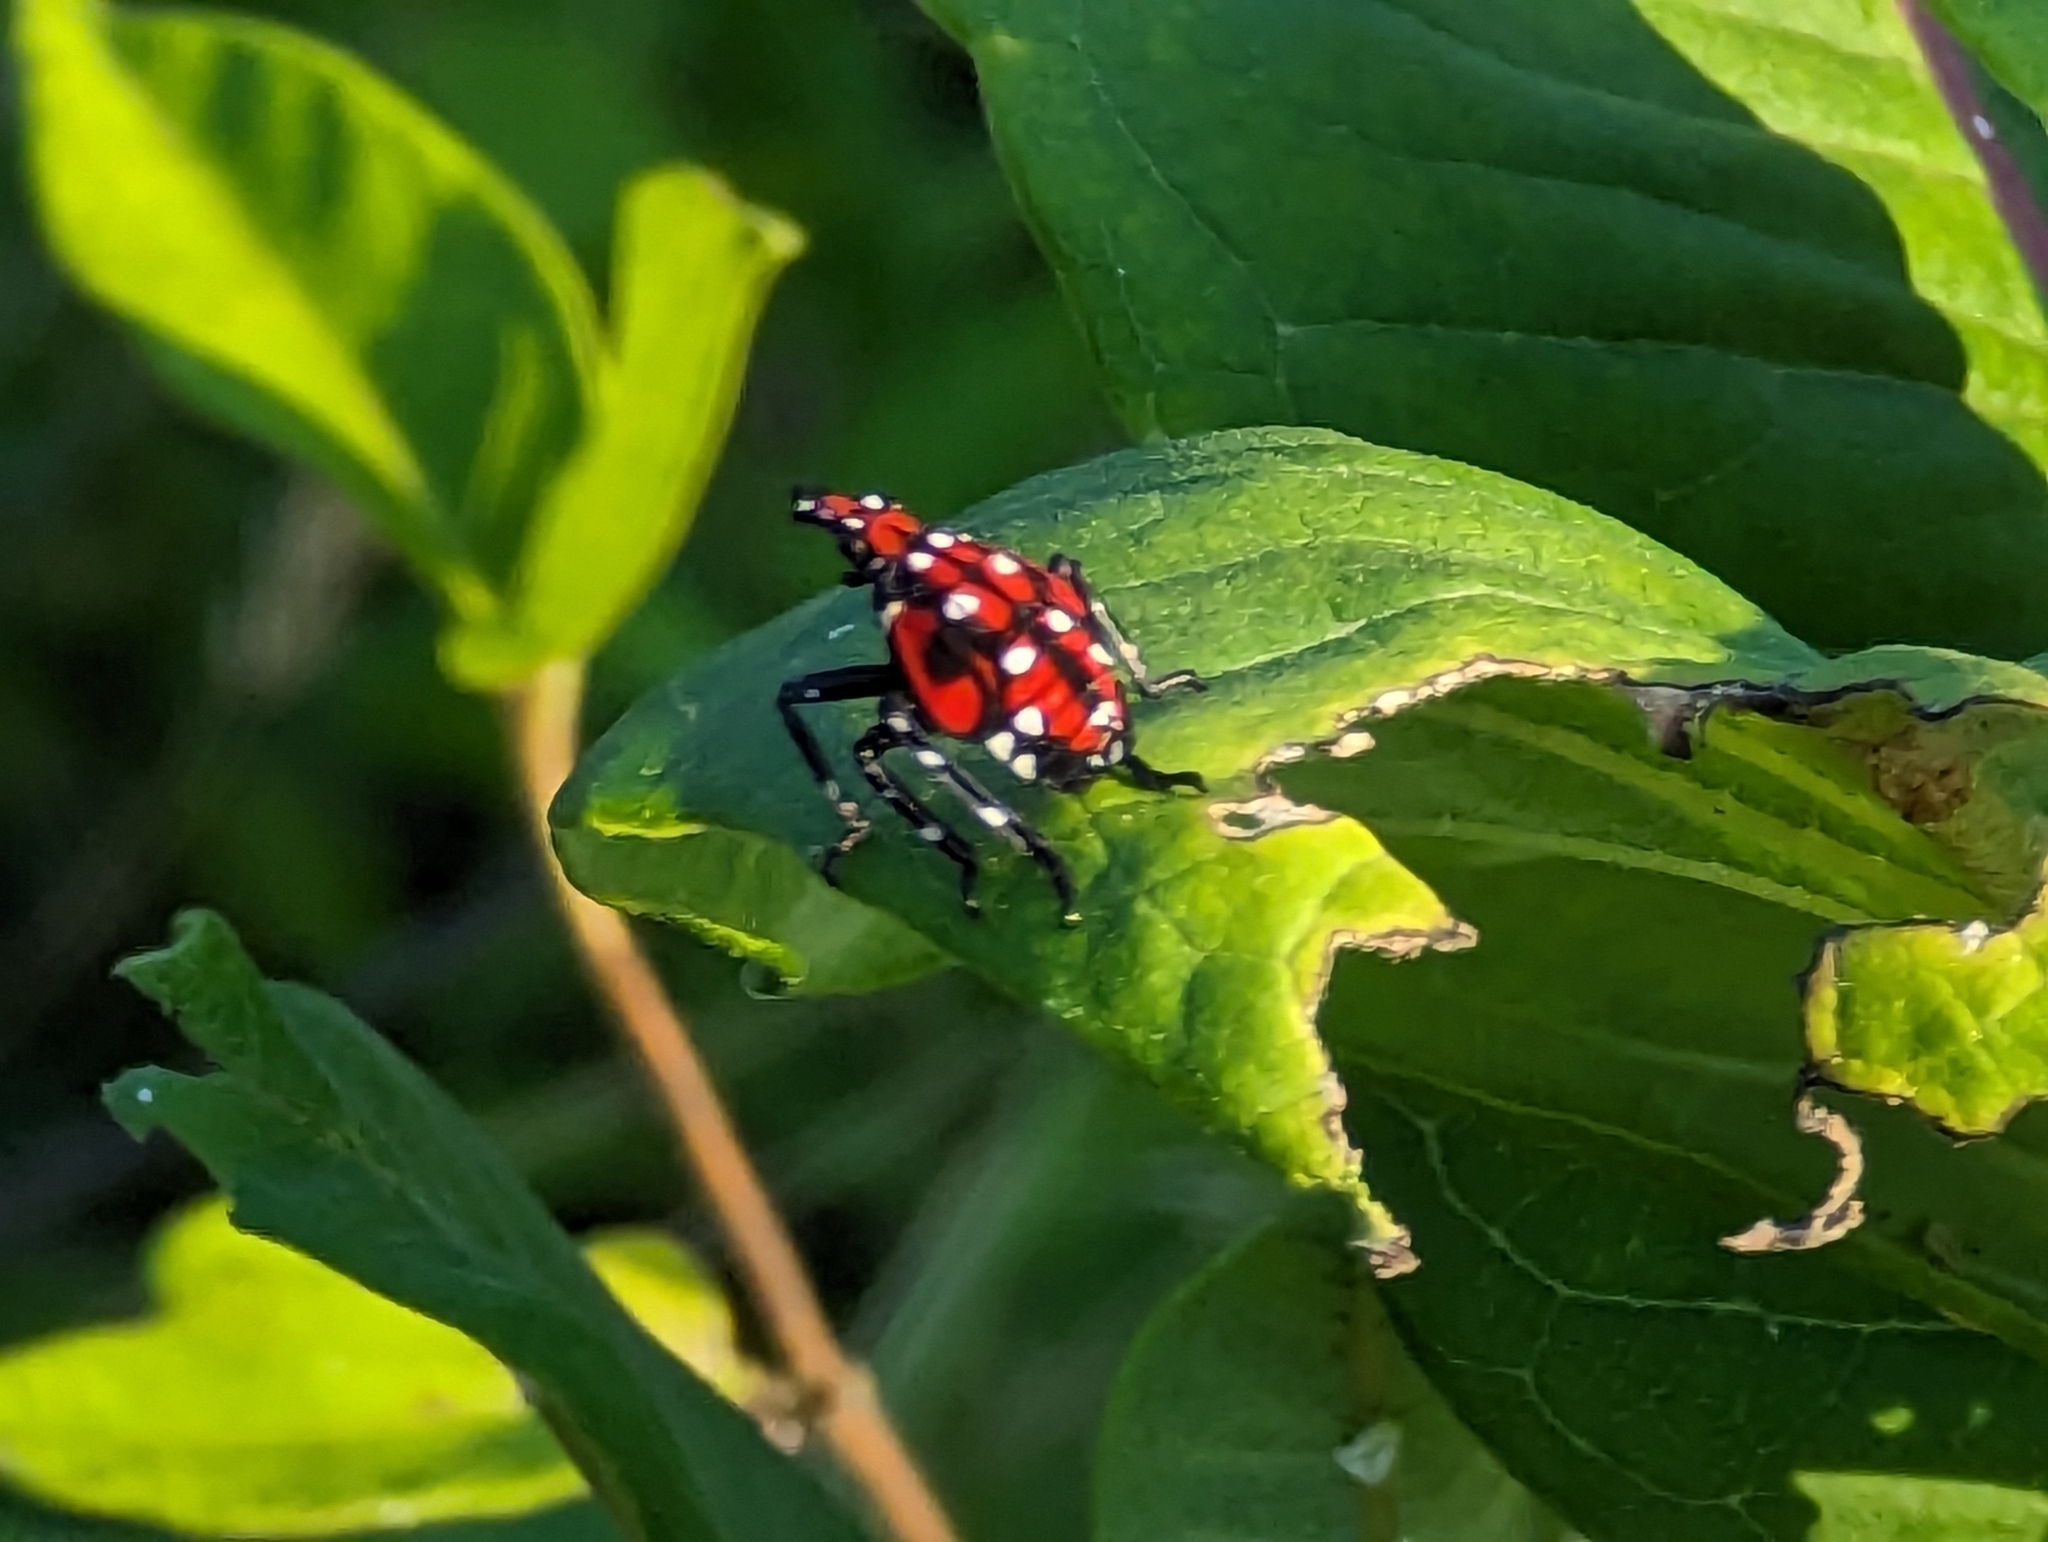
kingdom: Animalia
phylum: Arthropoda
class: Insecta
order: Hemiptera
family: Fulgoridae
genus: Lycorma
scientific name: Lycorma delicatula
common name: Spotted lanternfly
